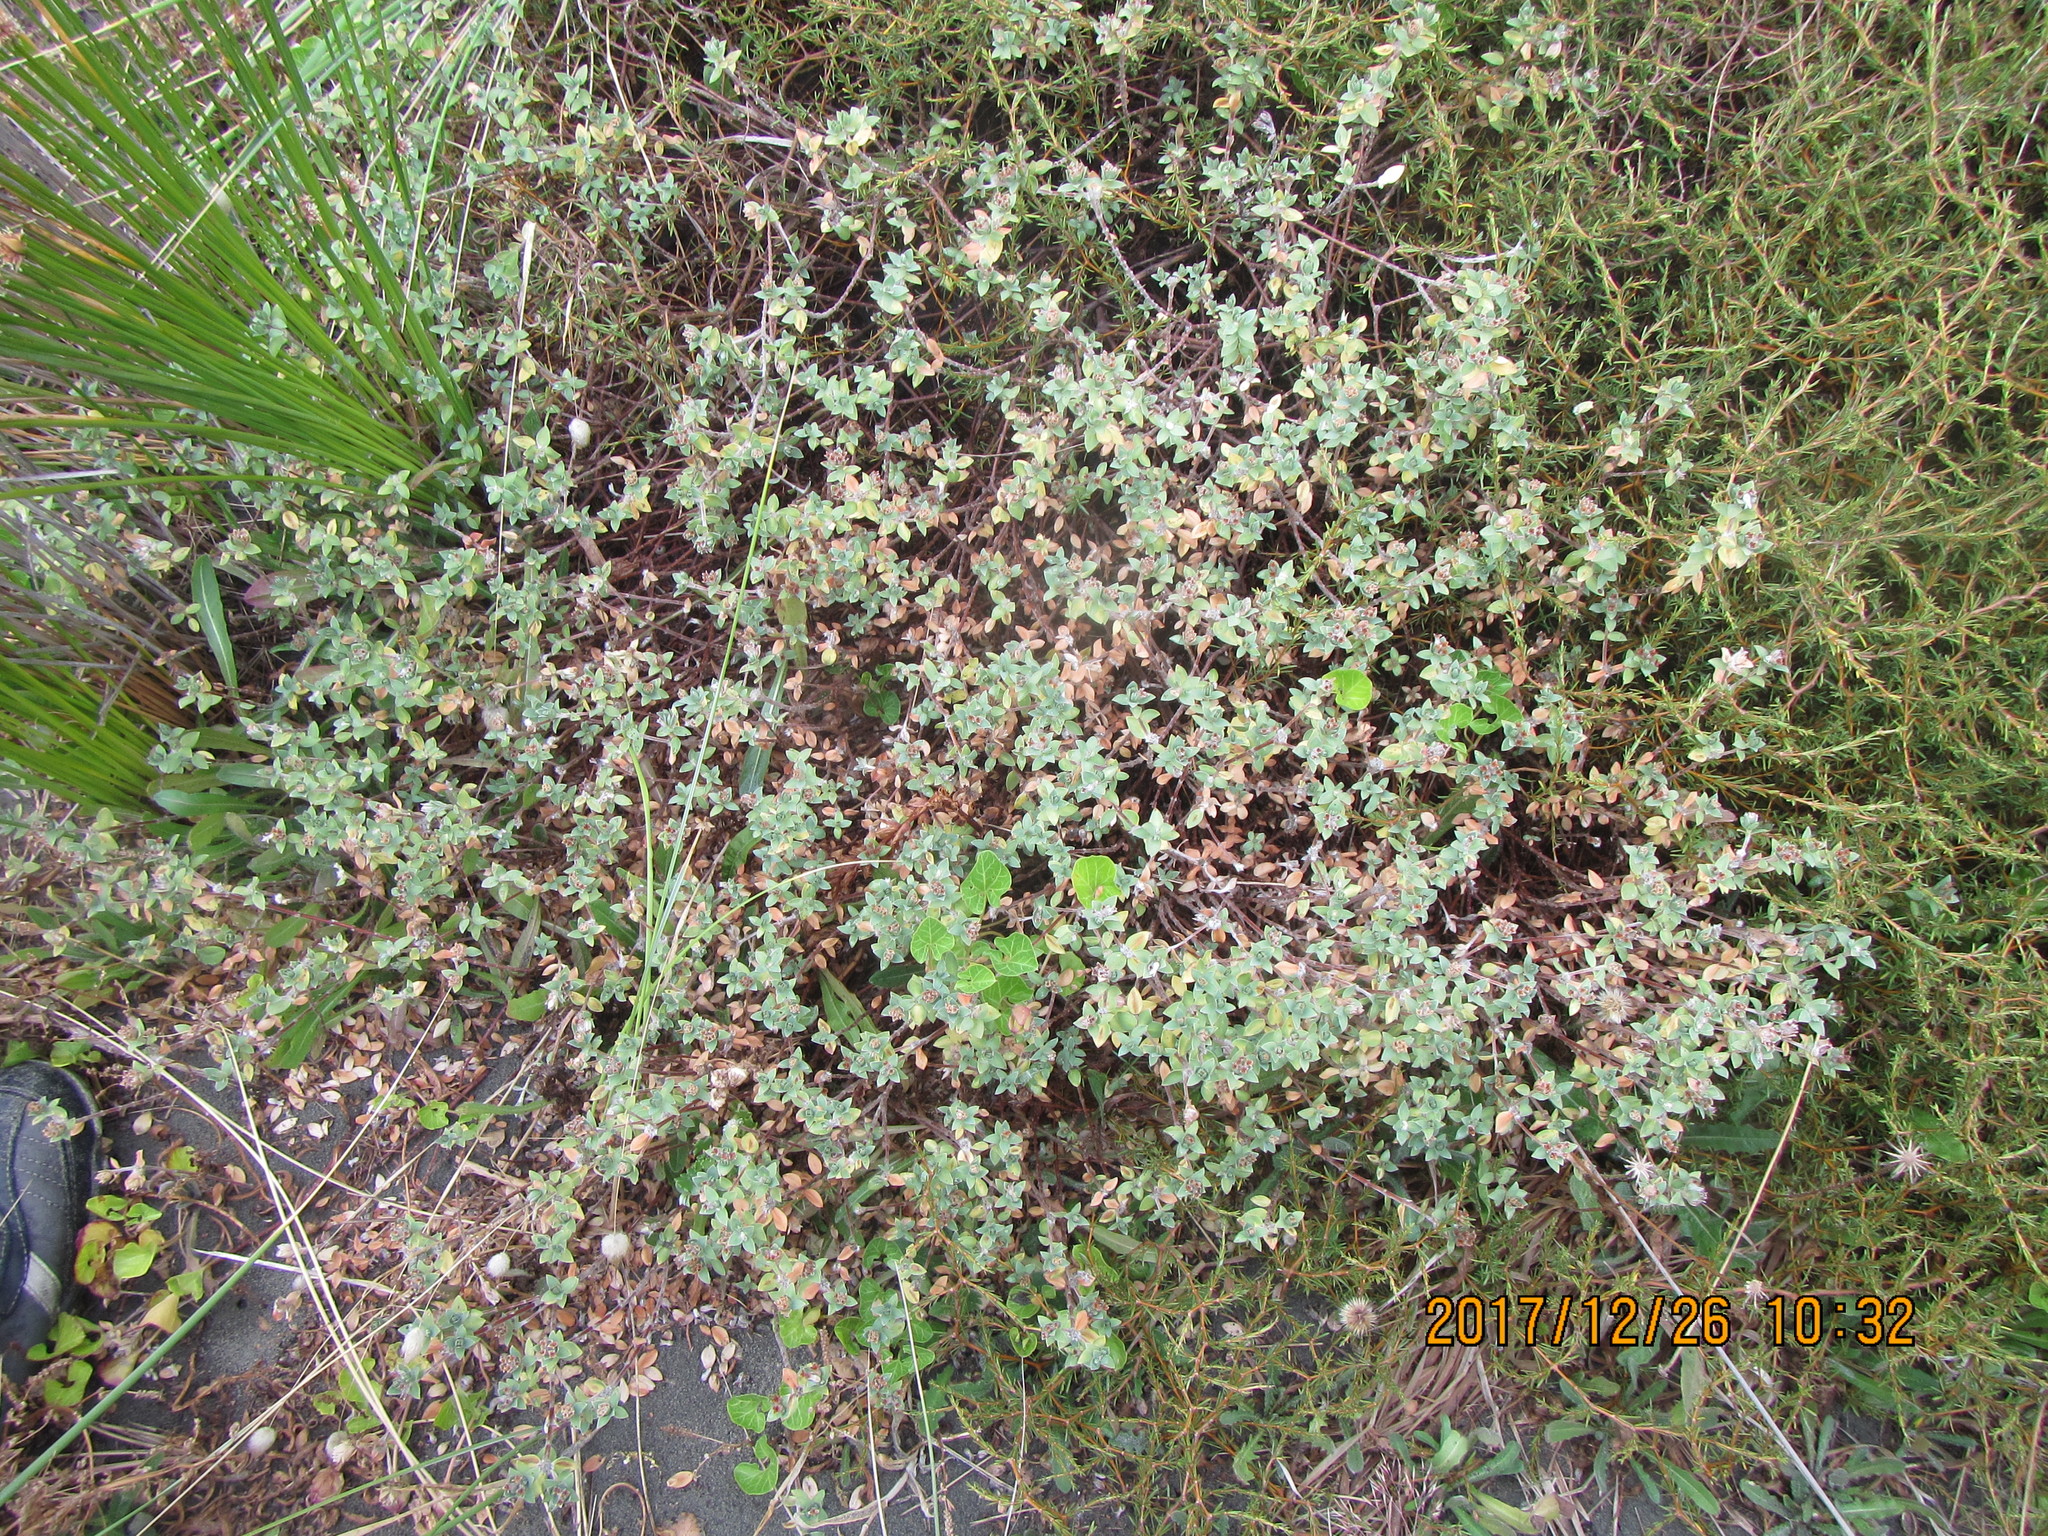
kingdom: Plantae
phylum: Tracheophyta
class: Magnoliopsida
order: Malvales
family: Thymelaeaceae
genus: Pimelea
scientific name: Pimelea villosa
